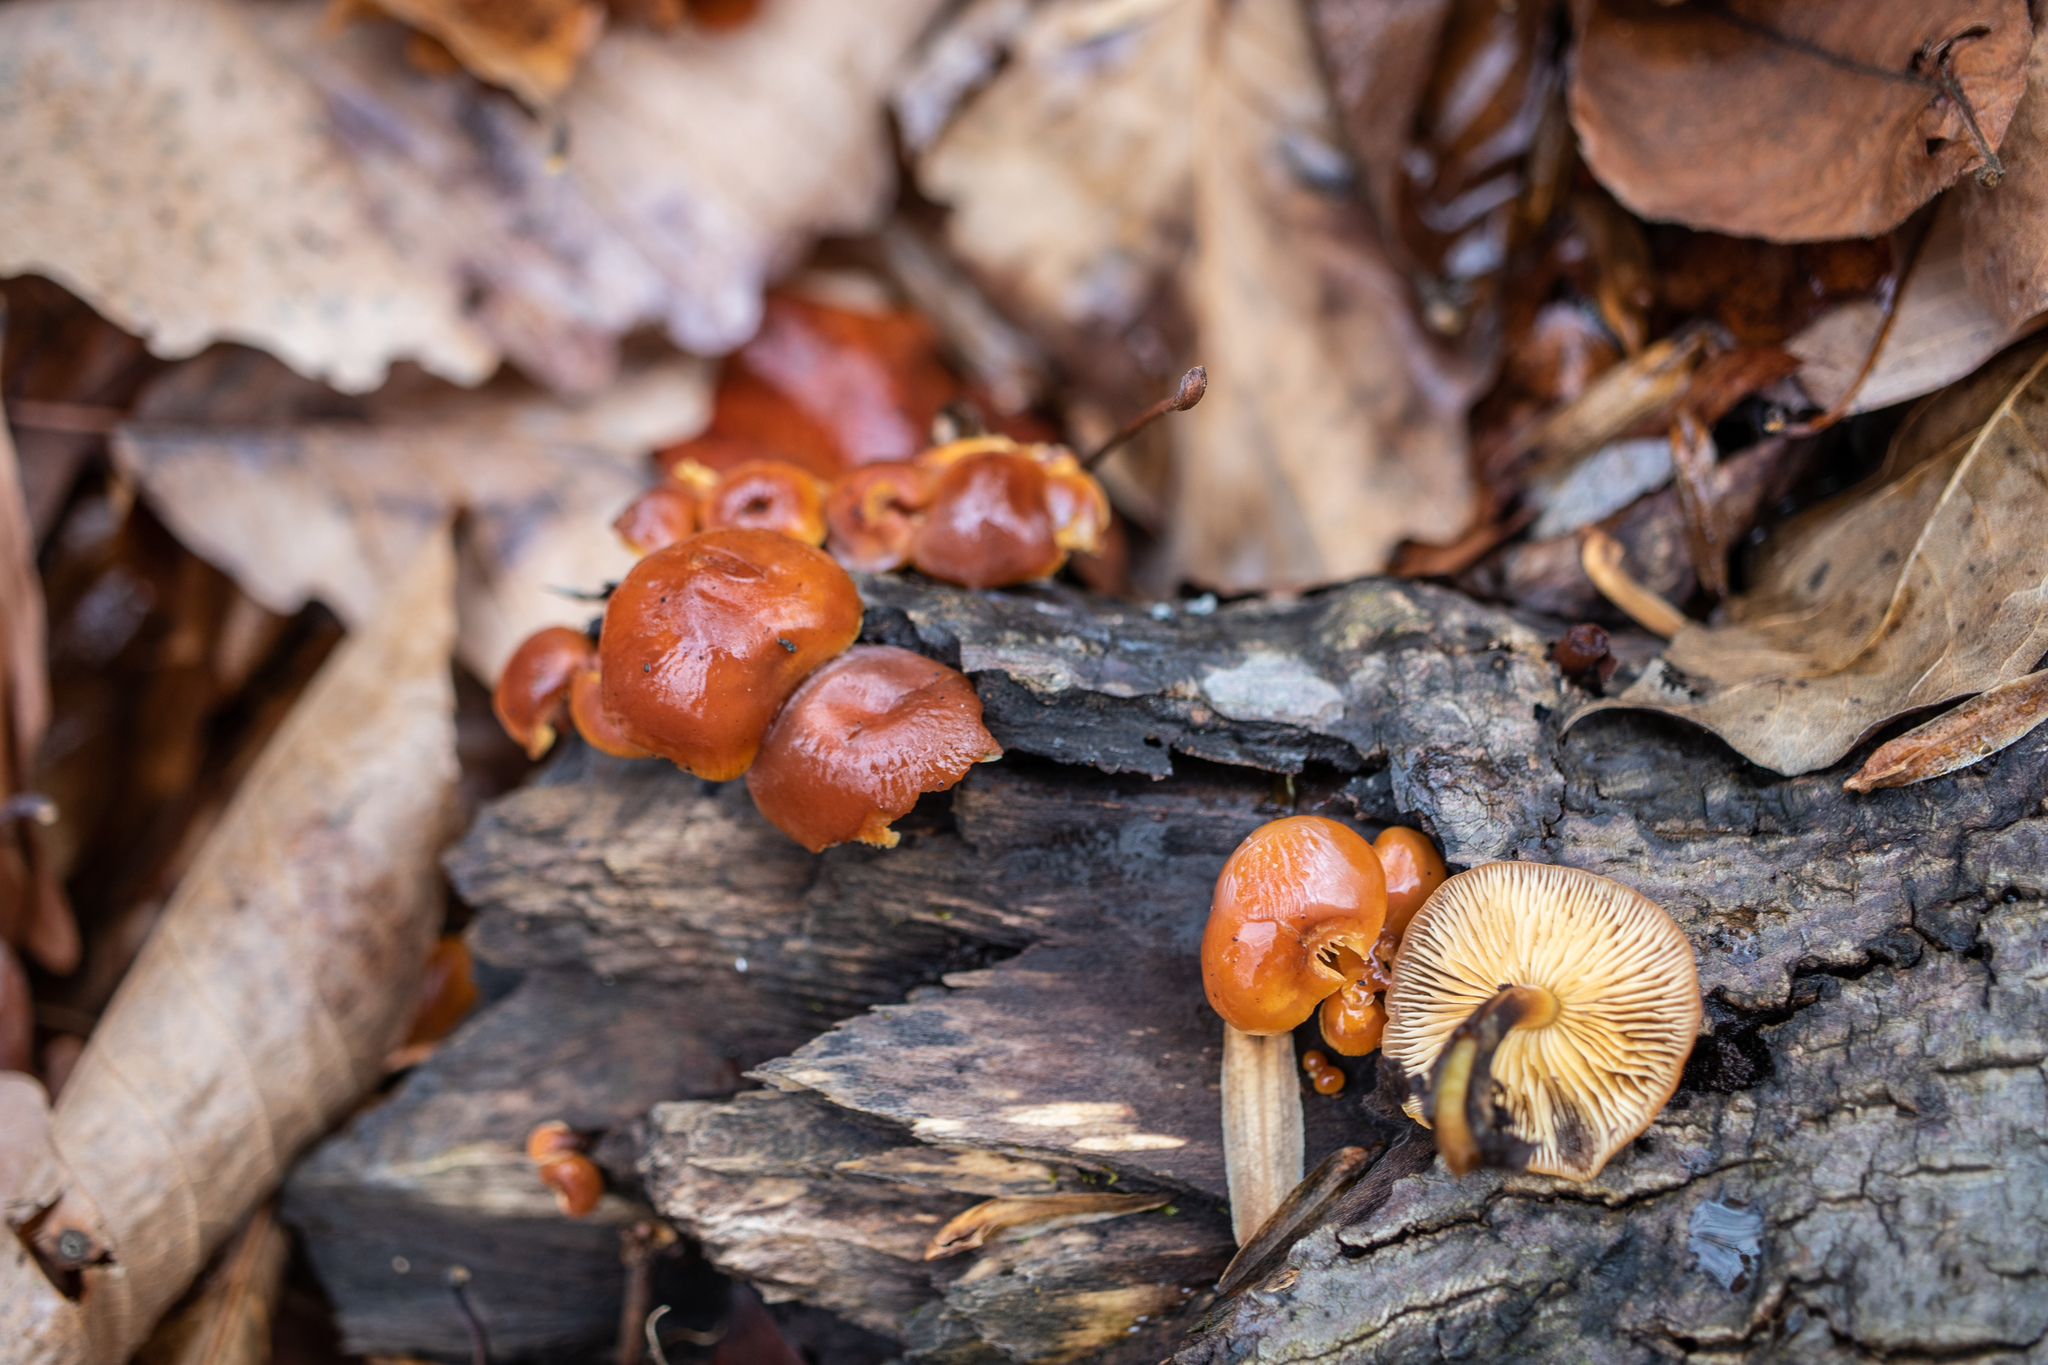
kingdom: Fungi
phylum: Basidiomycota
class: Agaricomycetes
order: Agaricales
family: Physalacriaceae
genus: Flammulina
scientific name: Flammulina velutipes
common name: Velvet shank
